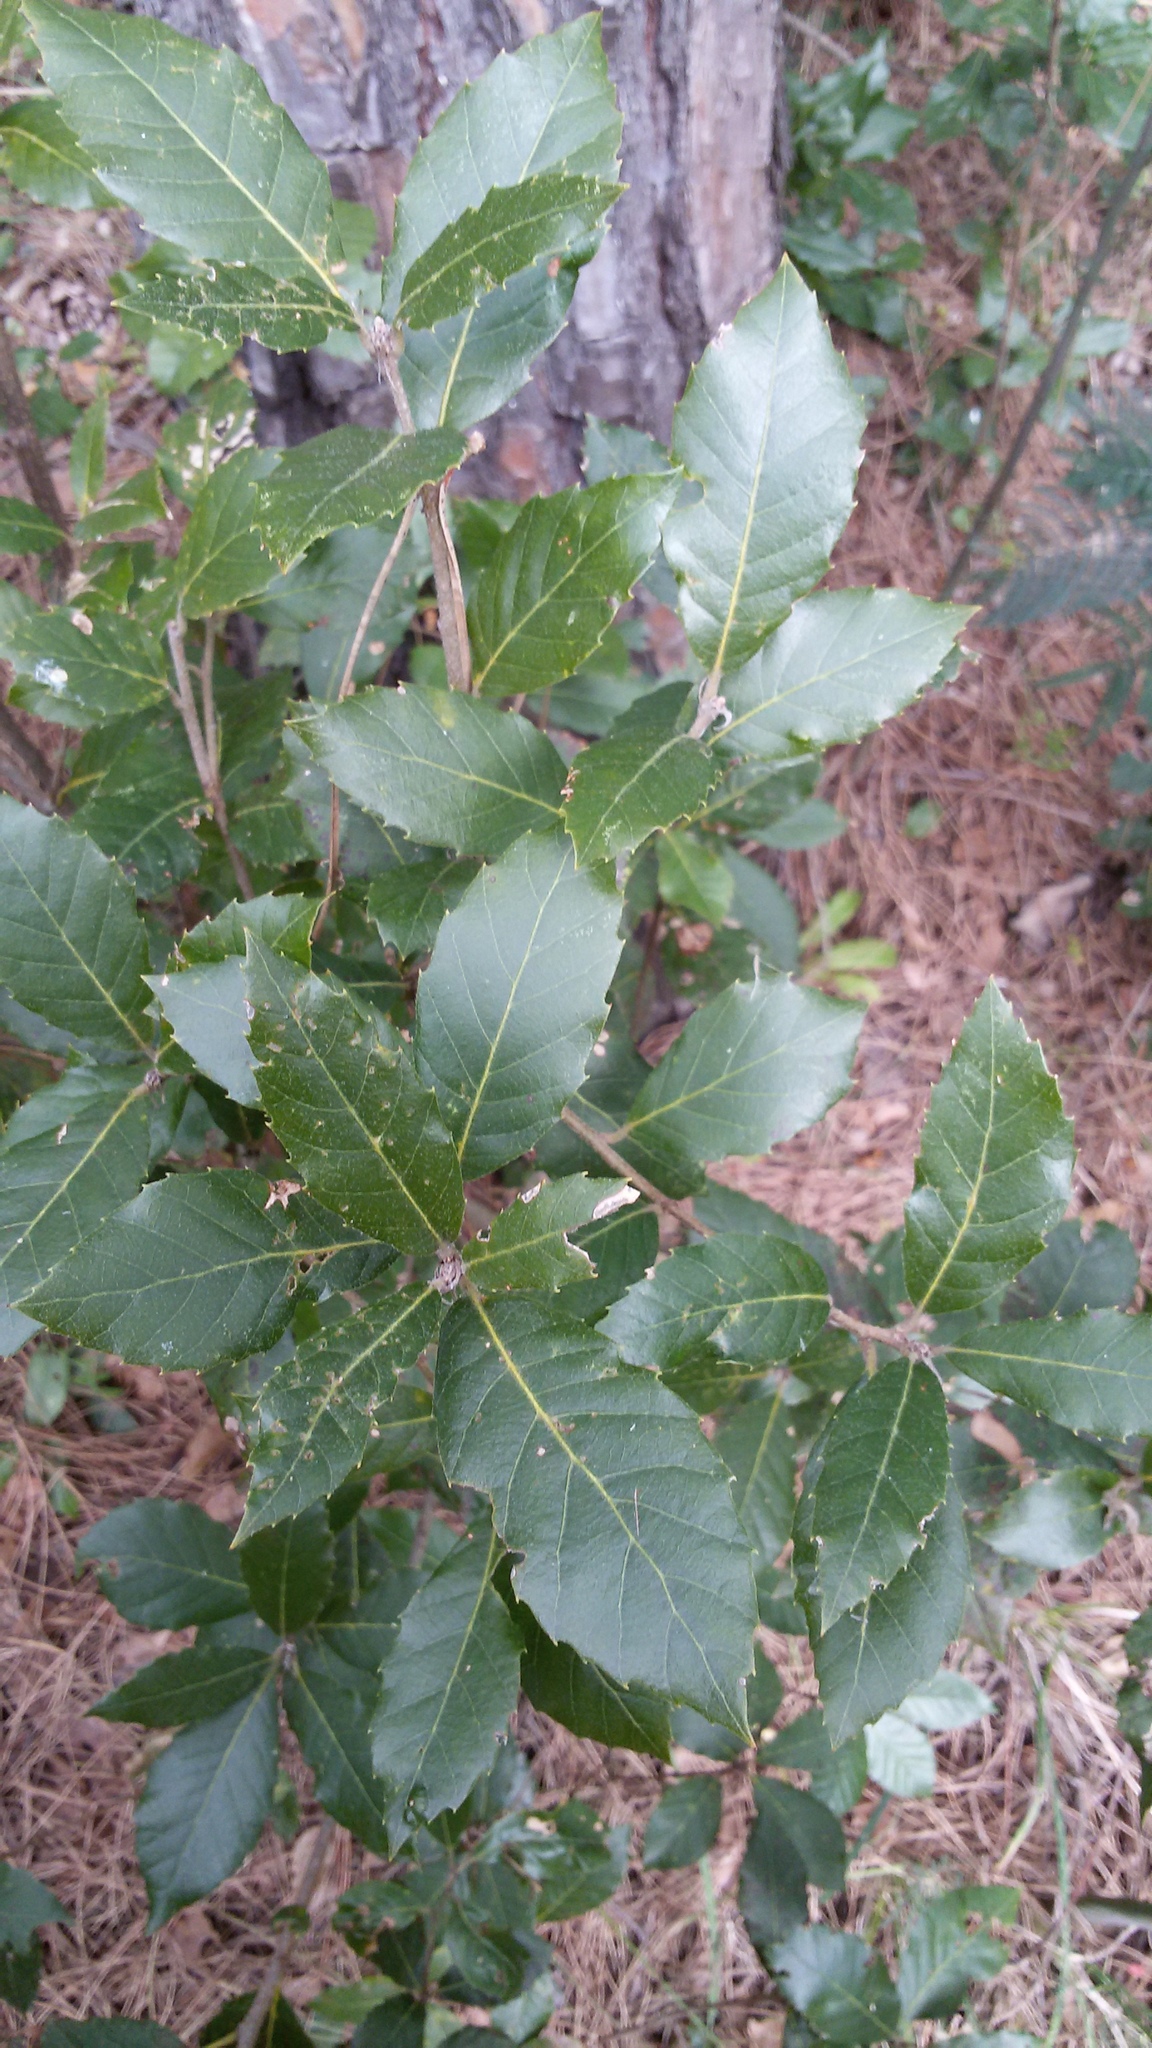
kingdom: Plantae
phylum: Tracheophyta
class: Magnoliopsida
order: Fagales
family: Fagaceae
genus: Quercus
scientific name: Quercus ilex
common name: Evergreen oak
